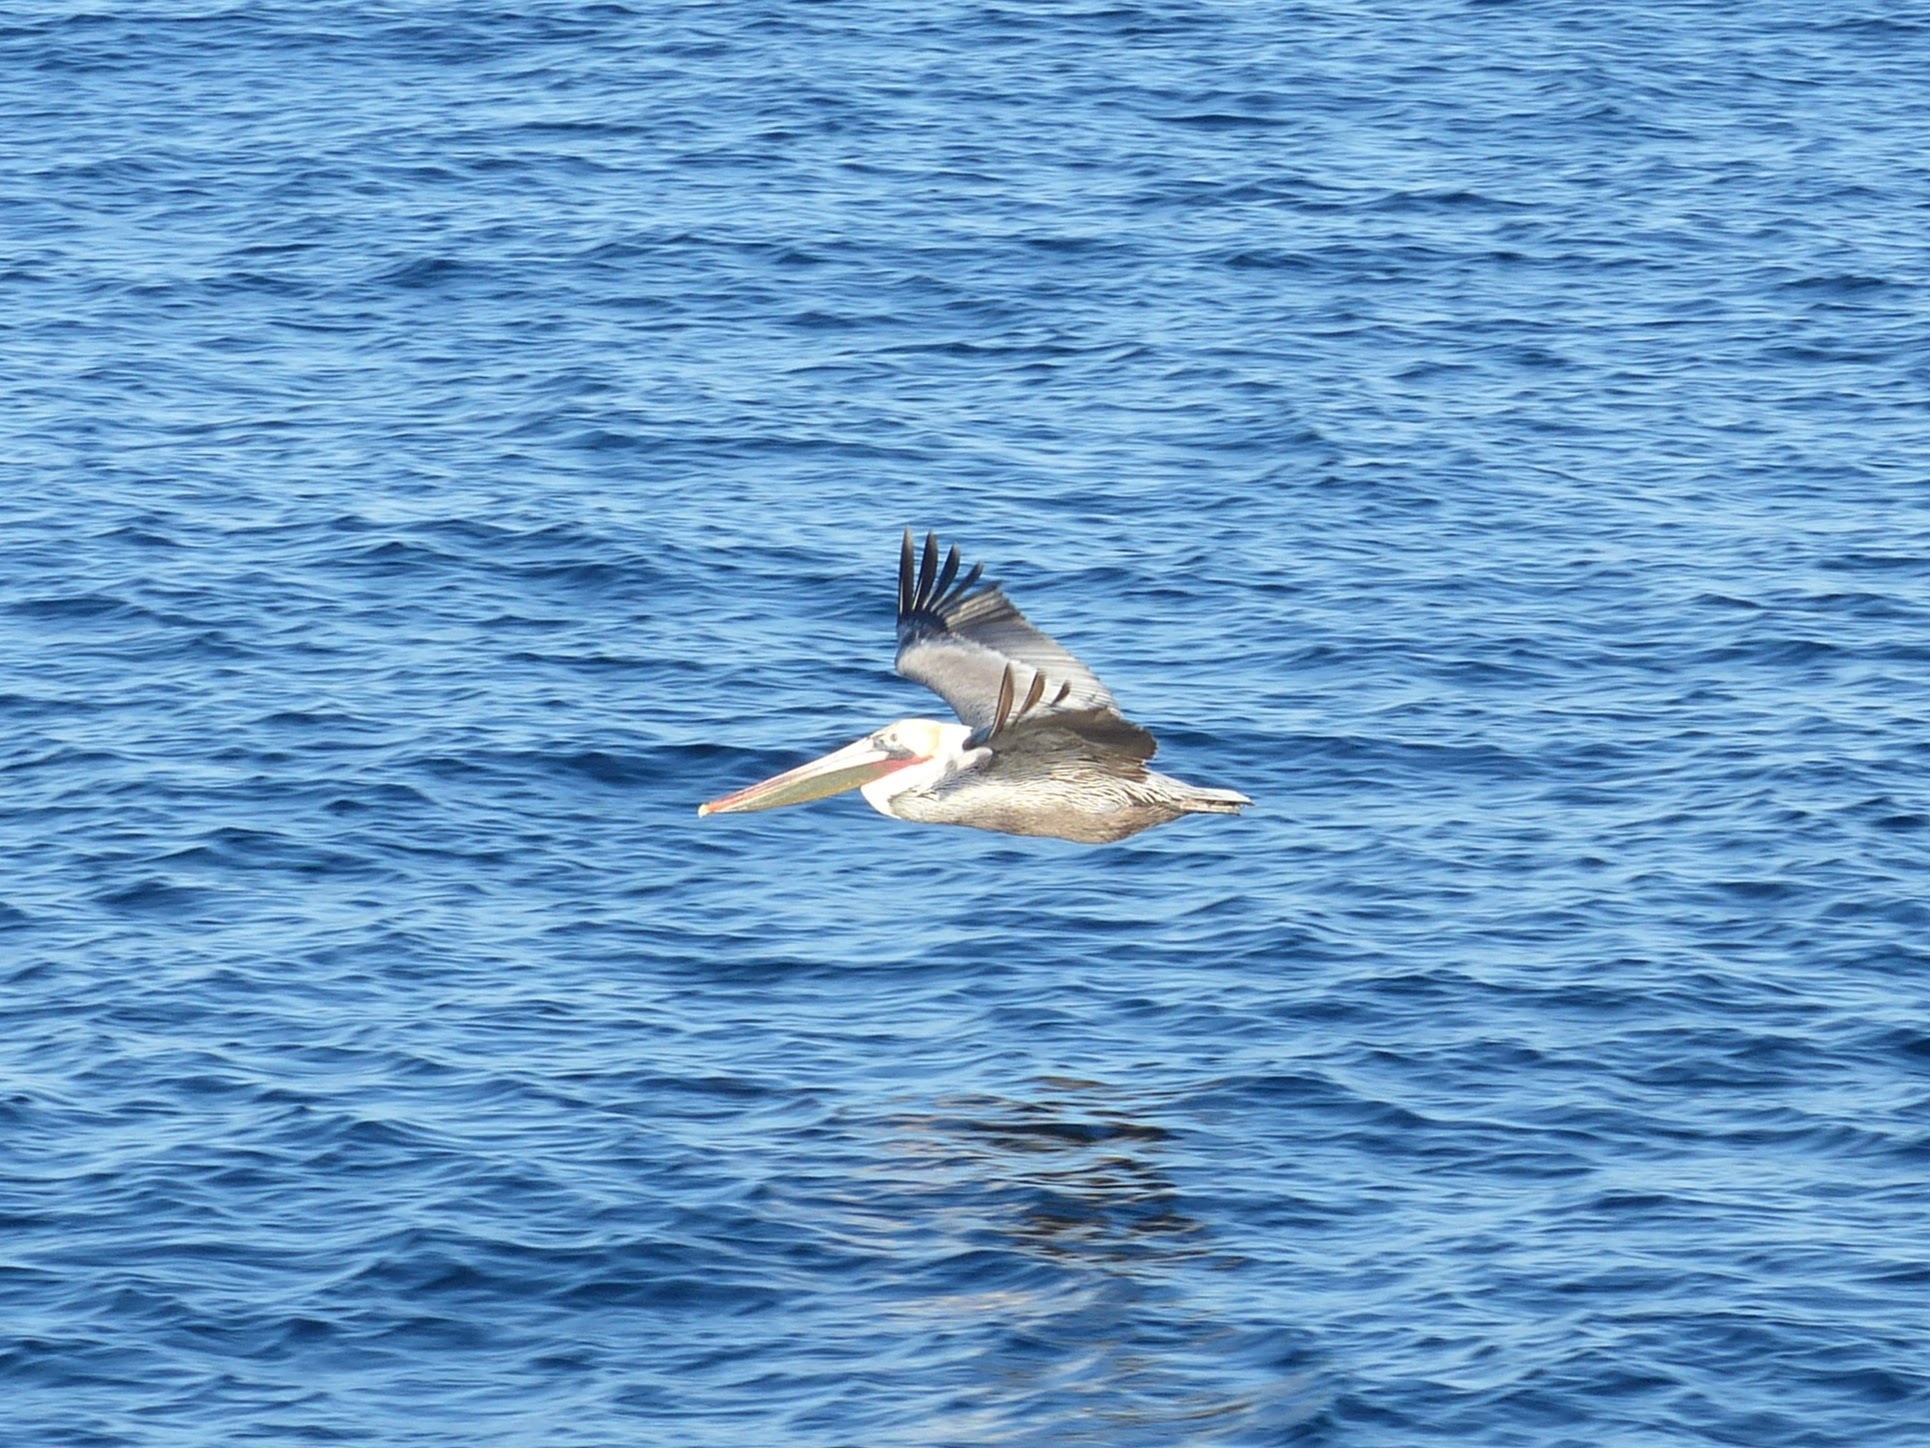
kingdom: Animalia
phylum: Chordata
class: Aves
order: Pelecaniformes
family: Pelecanidae
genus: Pelecanus
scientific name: Pelecanus occidentalis
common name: Brown pelican
